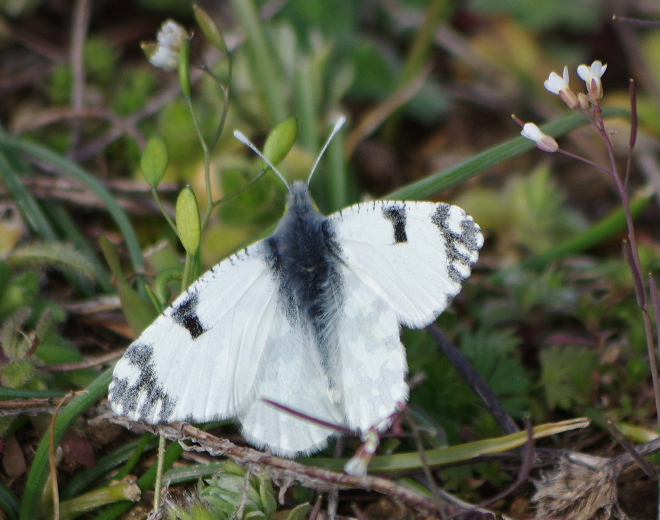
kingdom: Animalia
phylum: Arthropoda
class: Insecta
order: Lepidoptera
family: Pieridae
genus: Euchloe
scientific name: Euchloe ausonia
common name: Eastern dappled white
